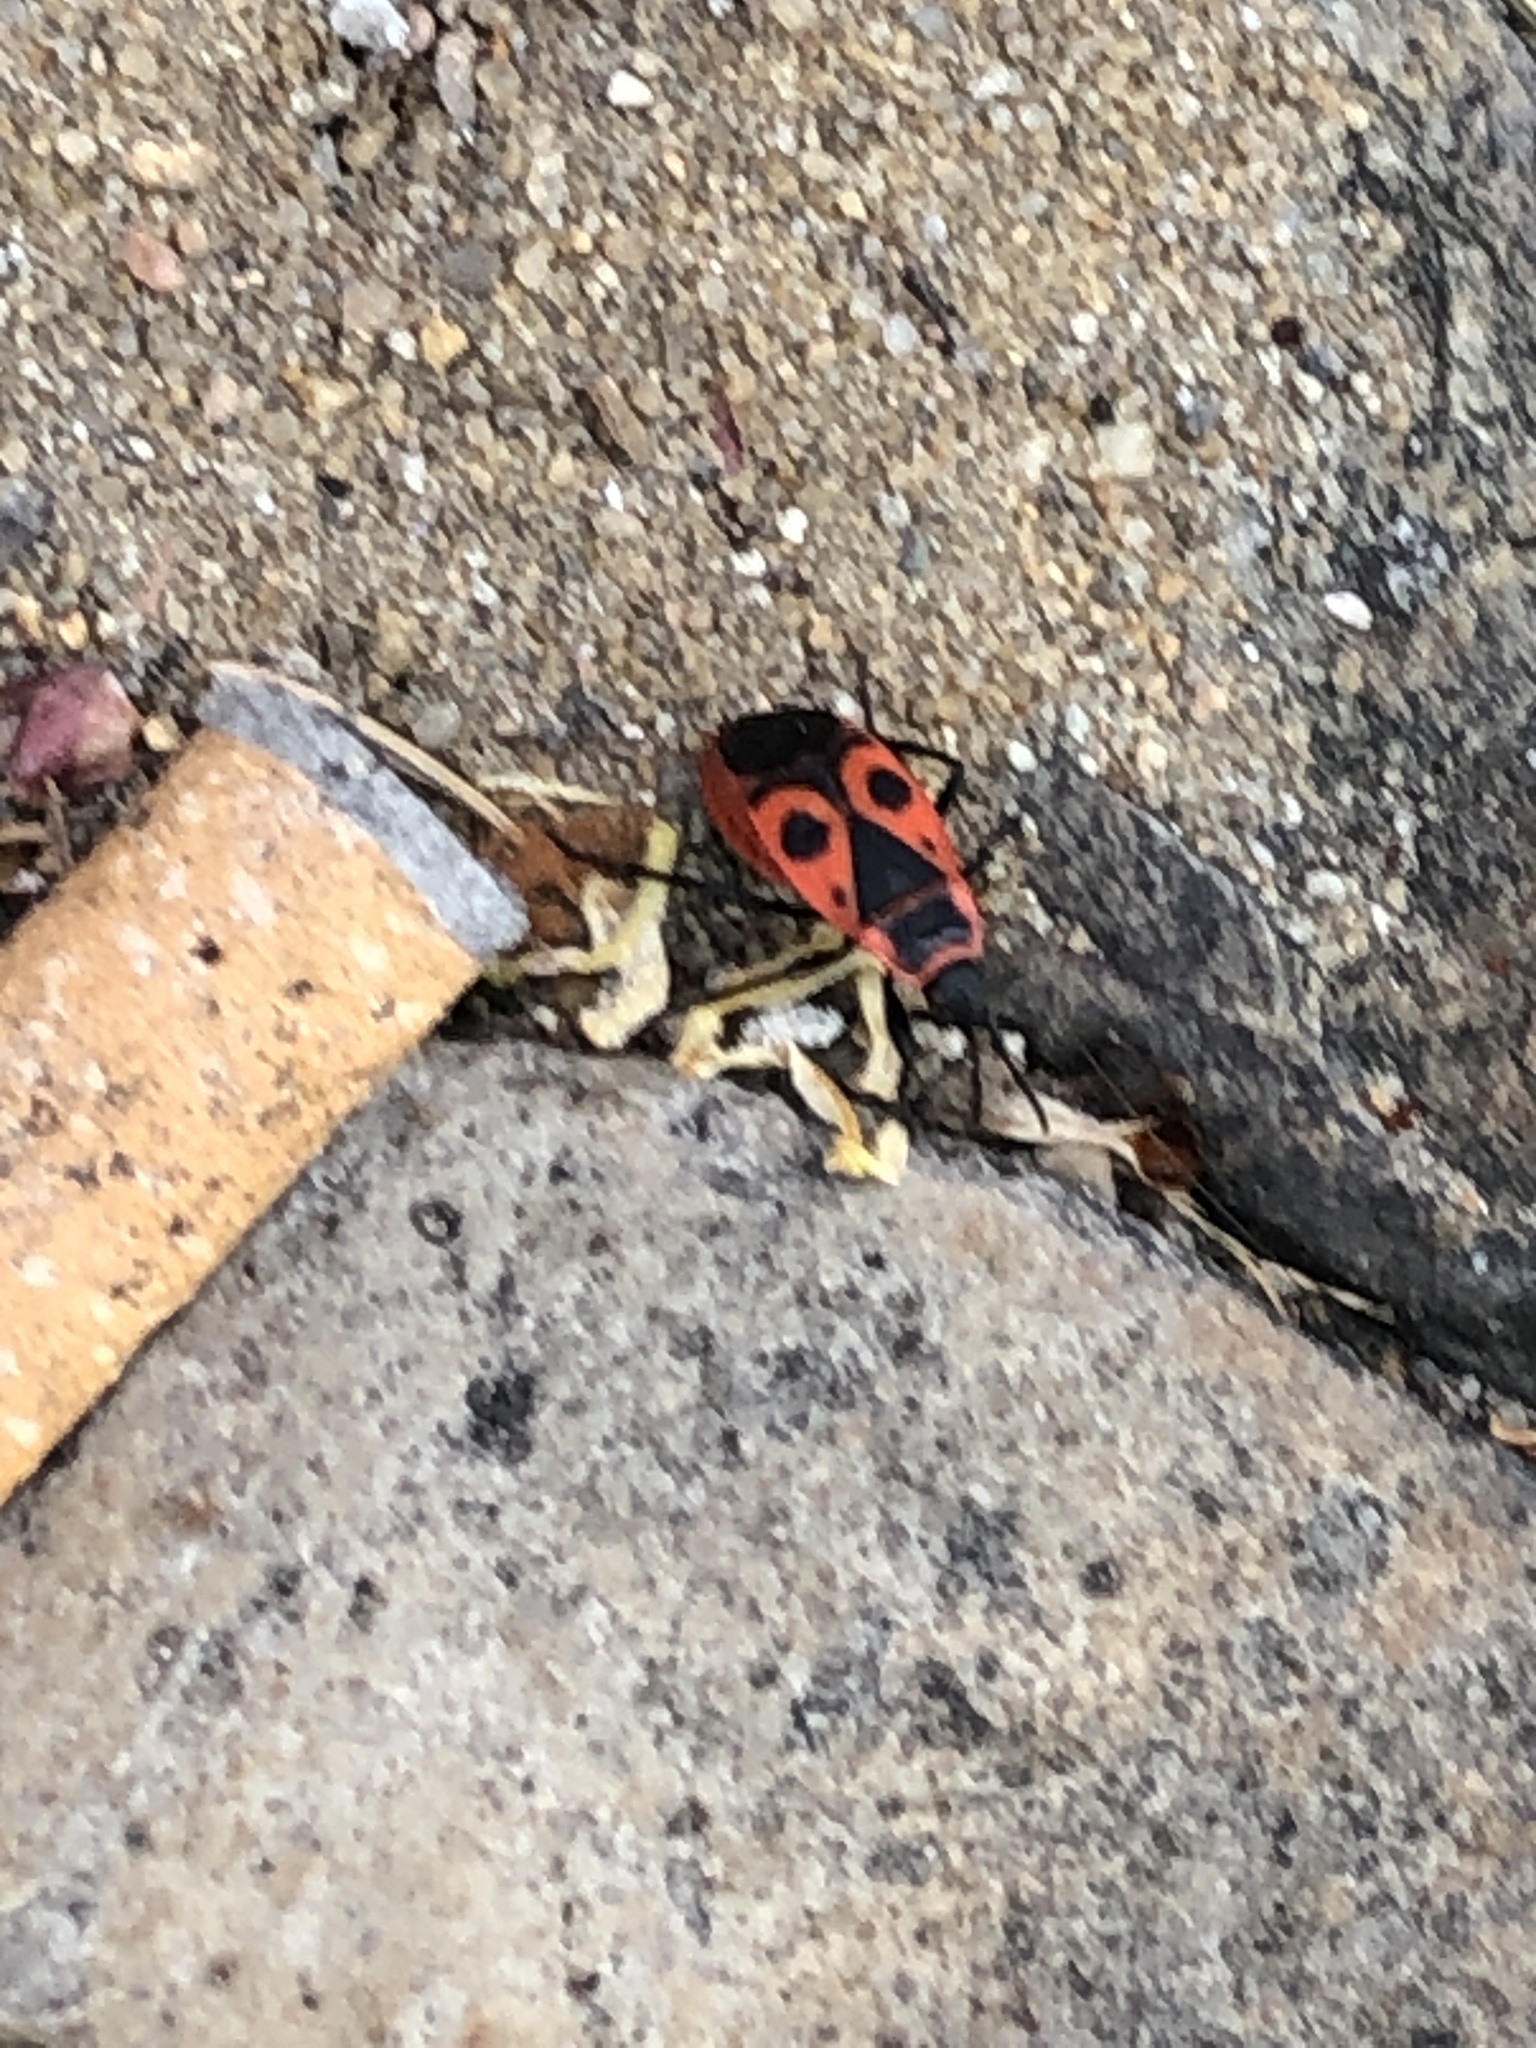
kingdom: Animalia
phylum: Arthropoda
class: Insecta
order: Hemiptera
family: Pyrrhocoridae
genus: Pyrrhocoris
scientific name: Pyrrhocoris apterus
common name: Firebug
